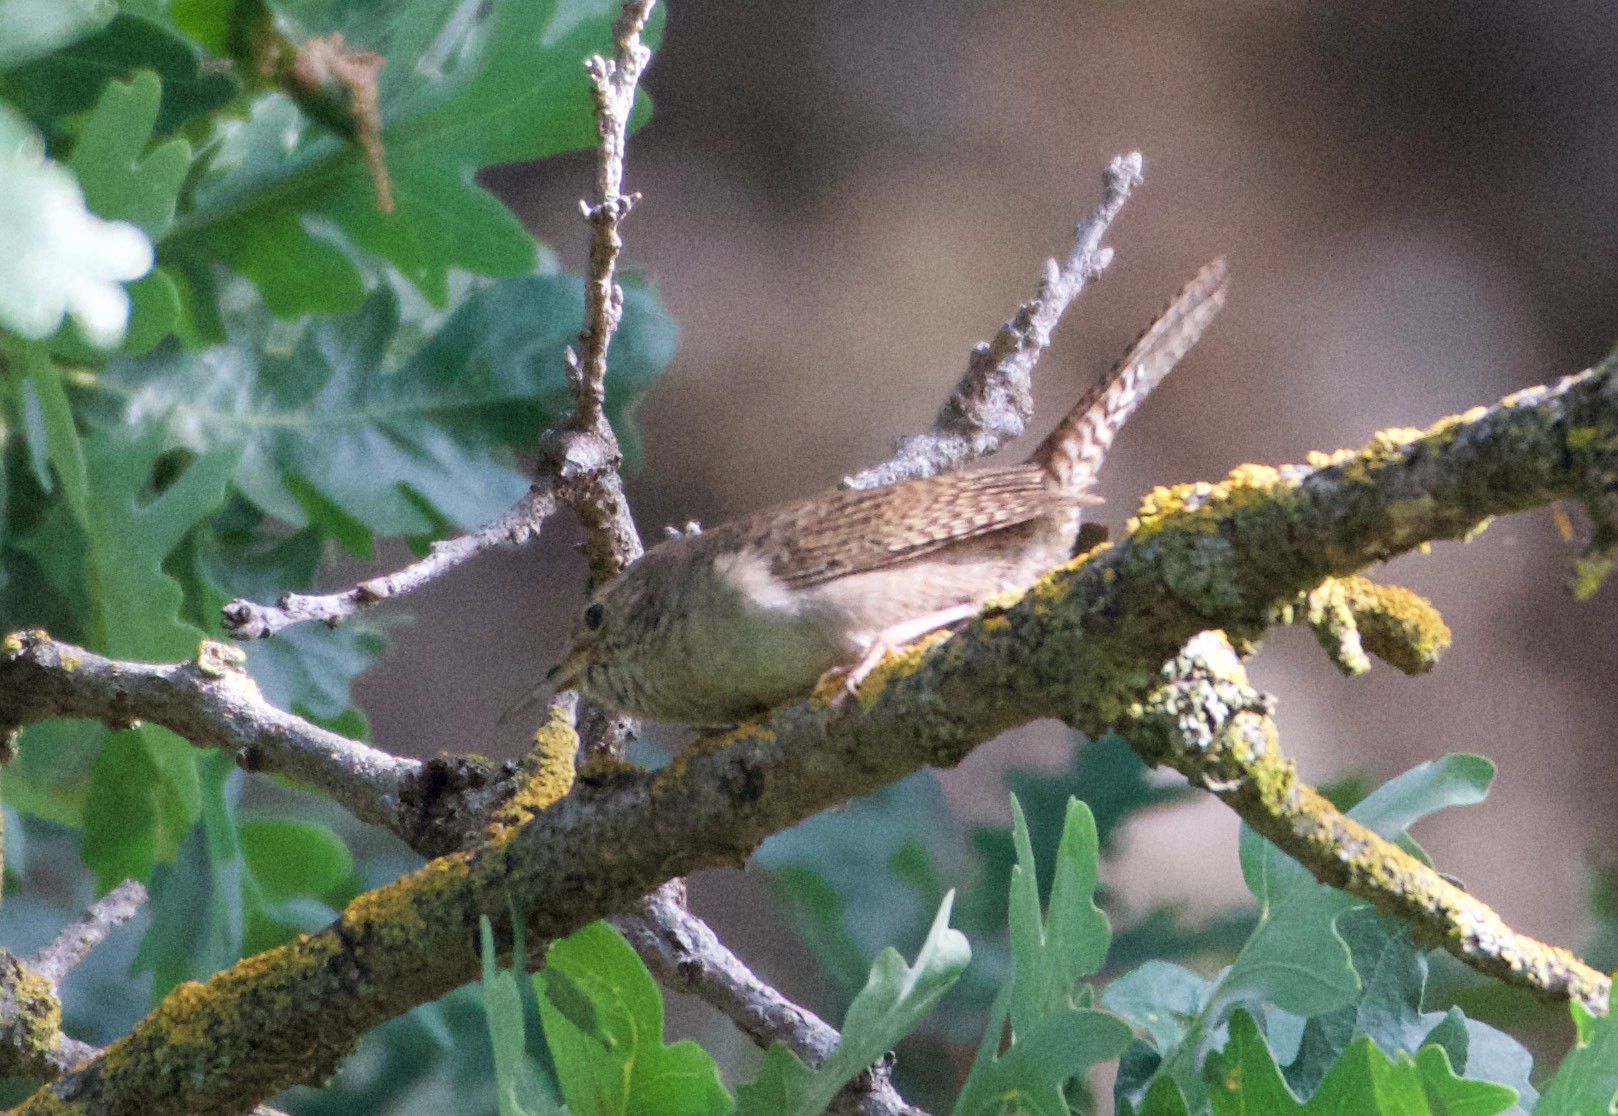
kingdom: Animalia
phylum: Chordata
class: Aves
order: Passeriformes
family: Troglodytidae
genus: Troglodytes
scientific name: Troglodytes aedon
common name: House wren
